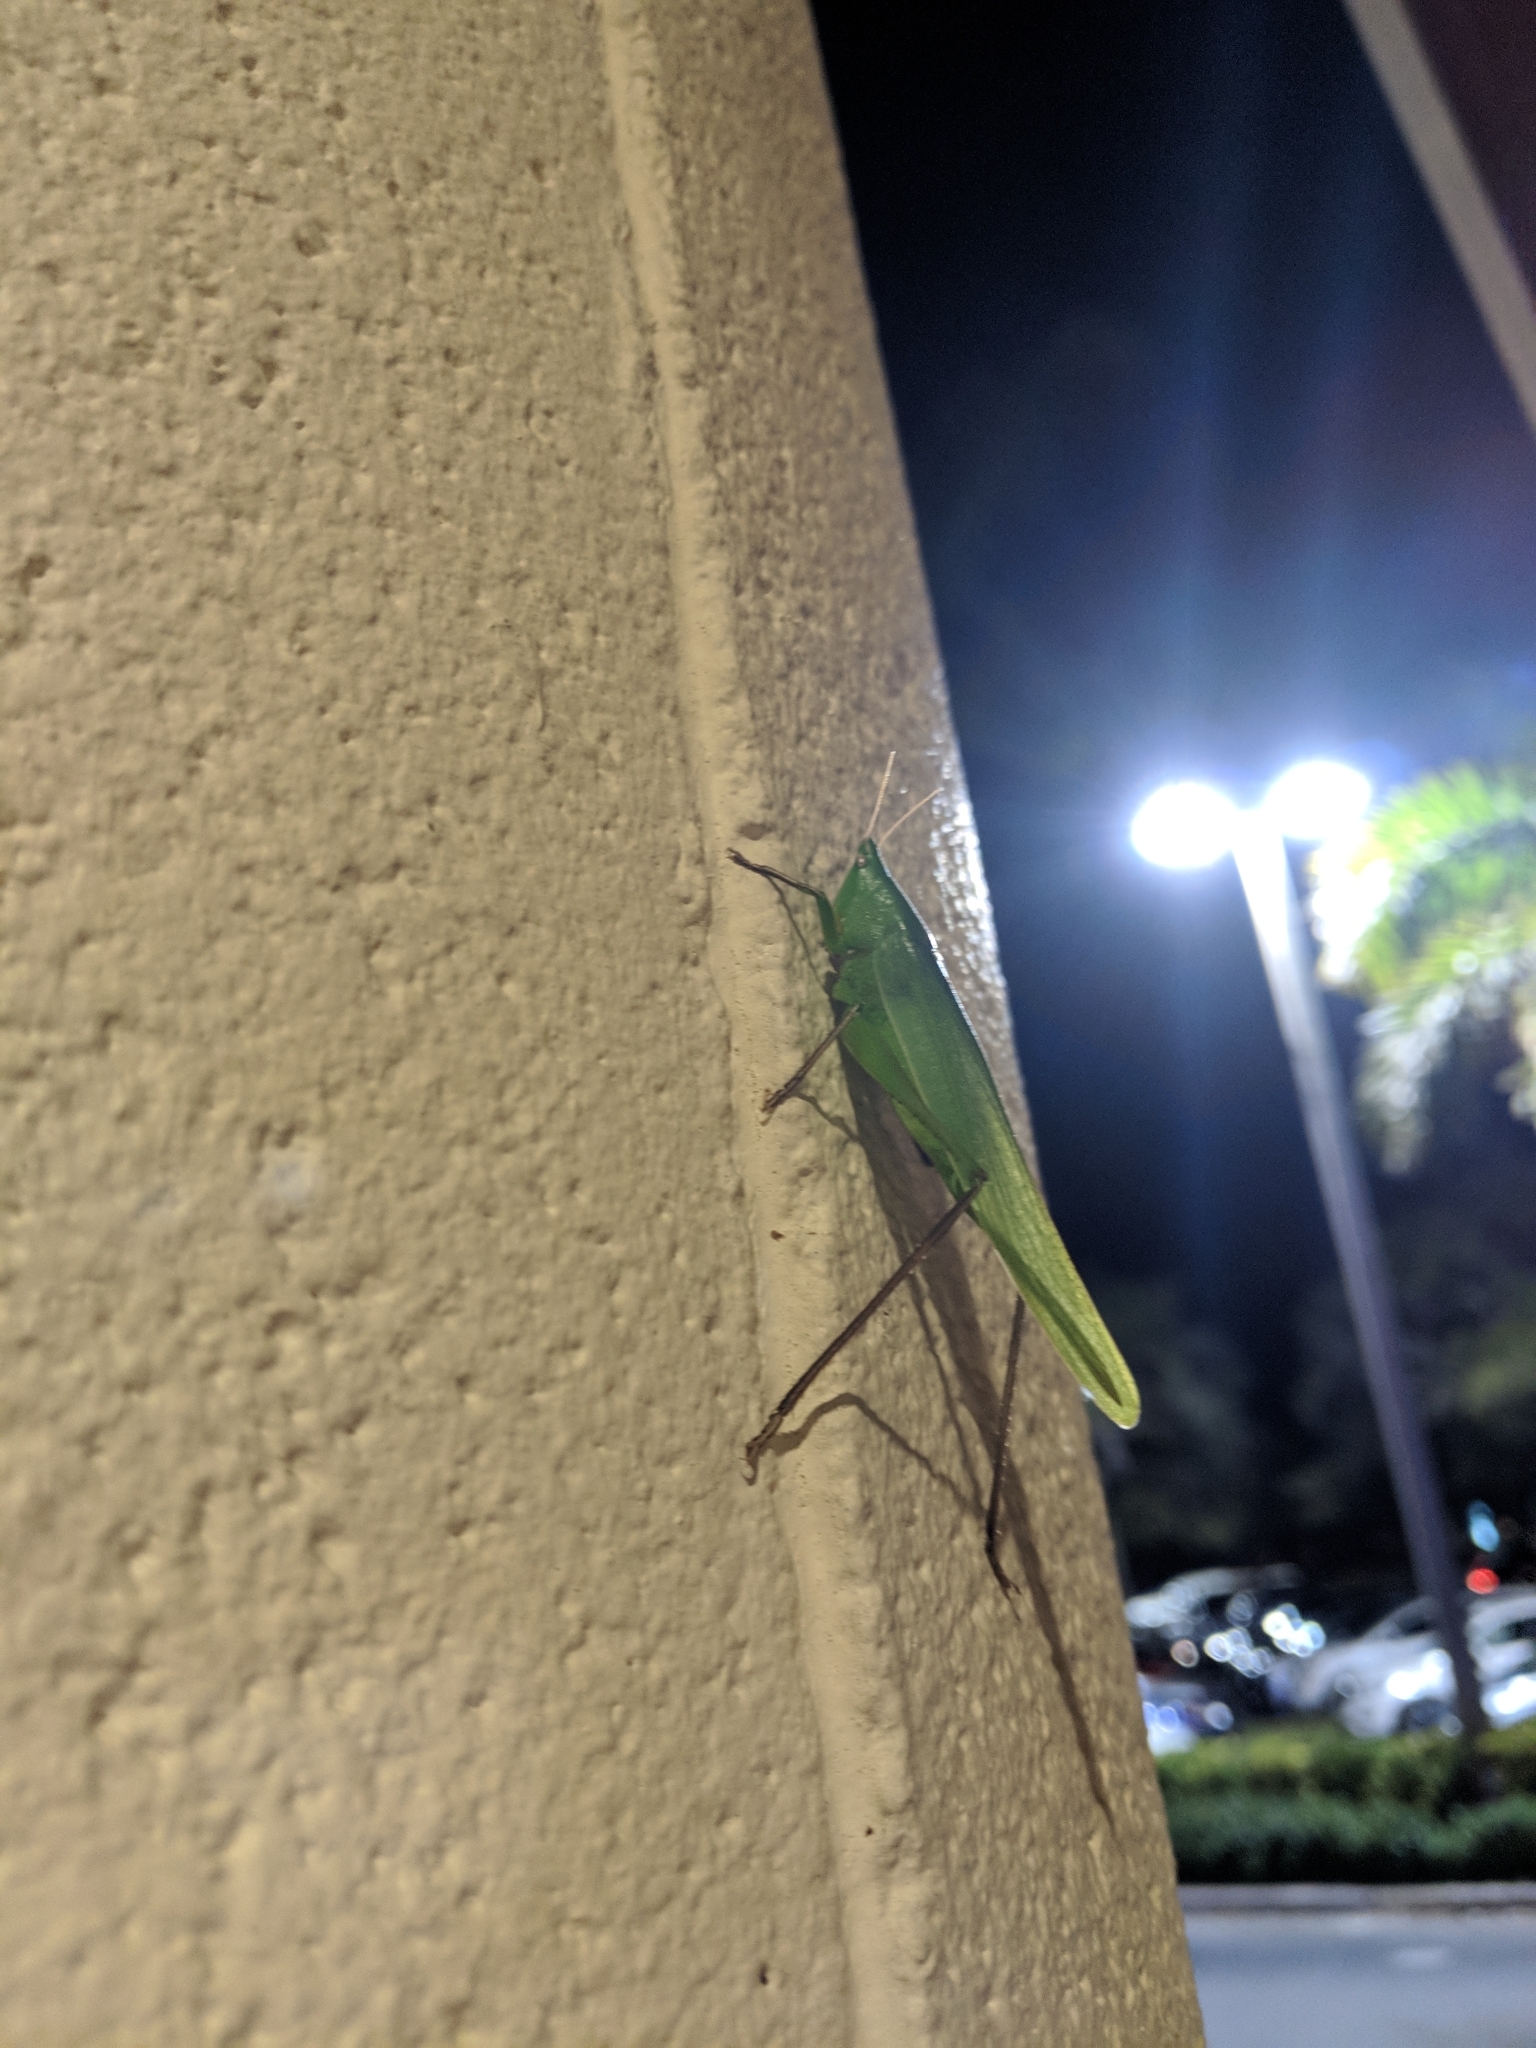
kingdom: Animalia
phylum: Arthropoda
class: Insecta
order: Orthoptera
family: Tettigoniidae
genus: Neoconocephalus
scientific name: Neoconocephalus triops
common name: Broad-tipped conehead
